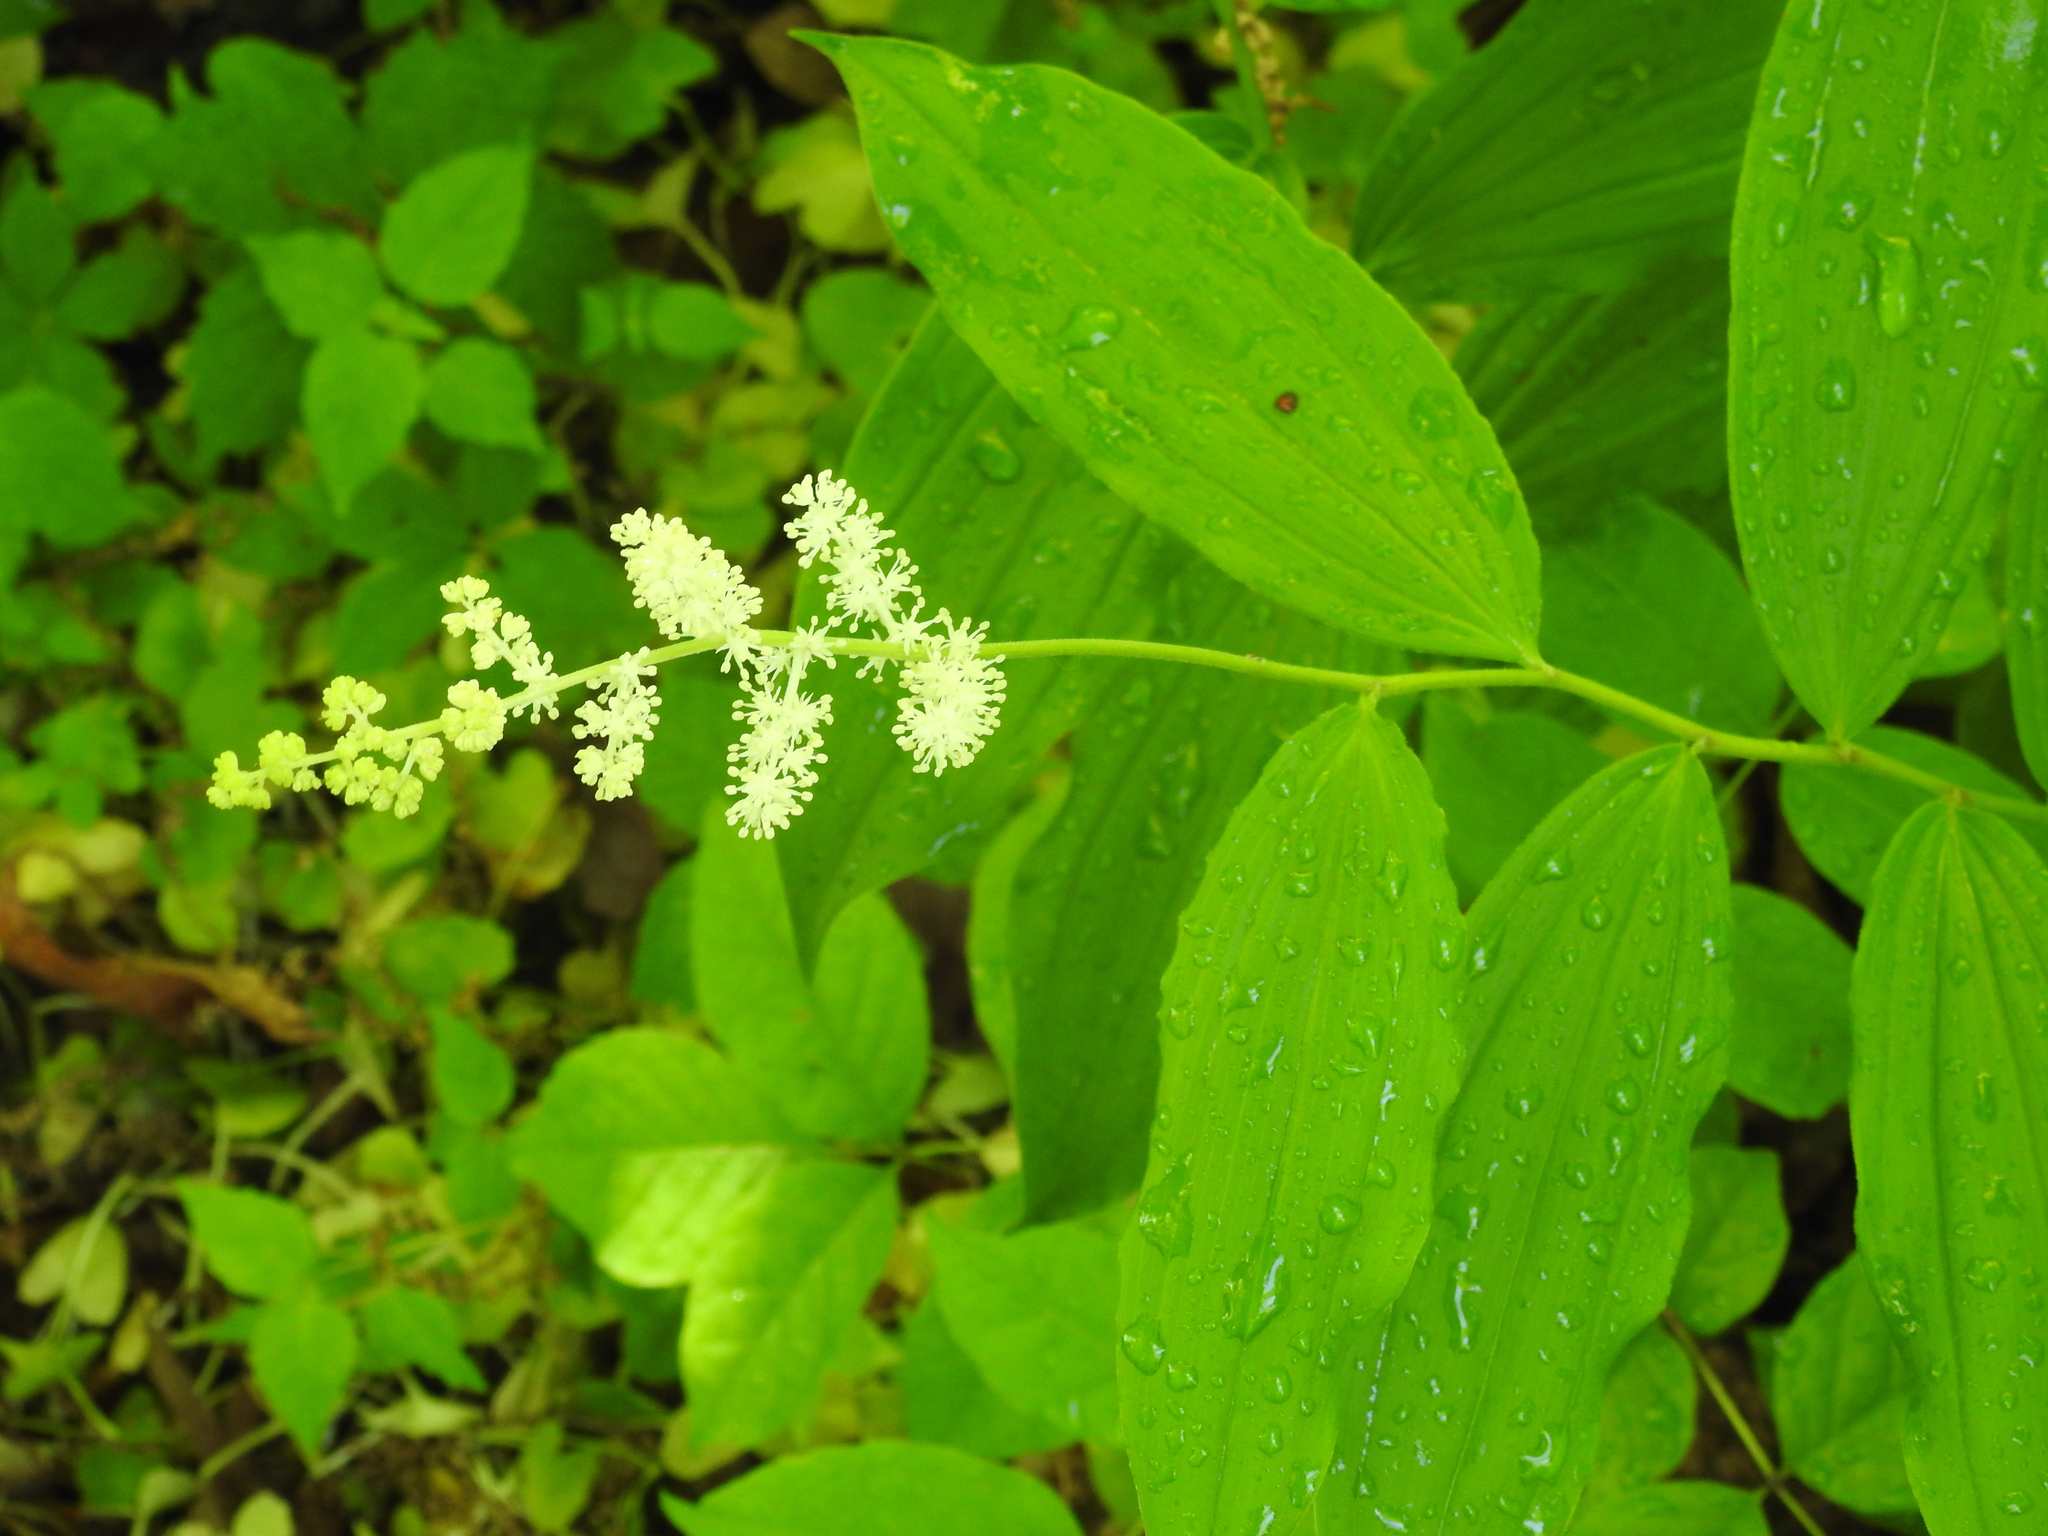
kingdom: Plantae
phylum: Tracheophyta
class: Liliopsida
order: Asparagales
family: Asparagaceae
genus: Maianthemum
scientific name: Maianthemum racemosum
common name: False spikenard
